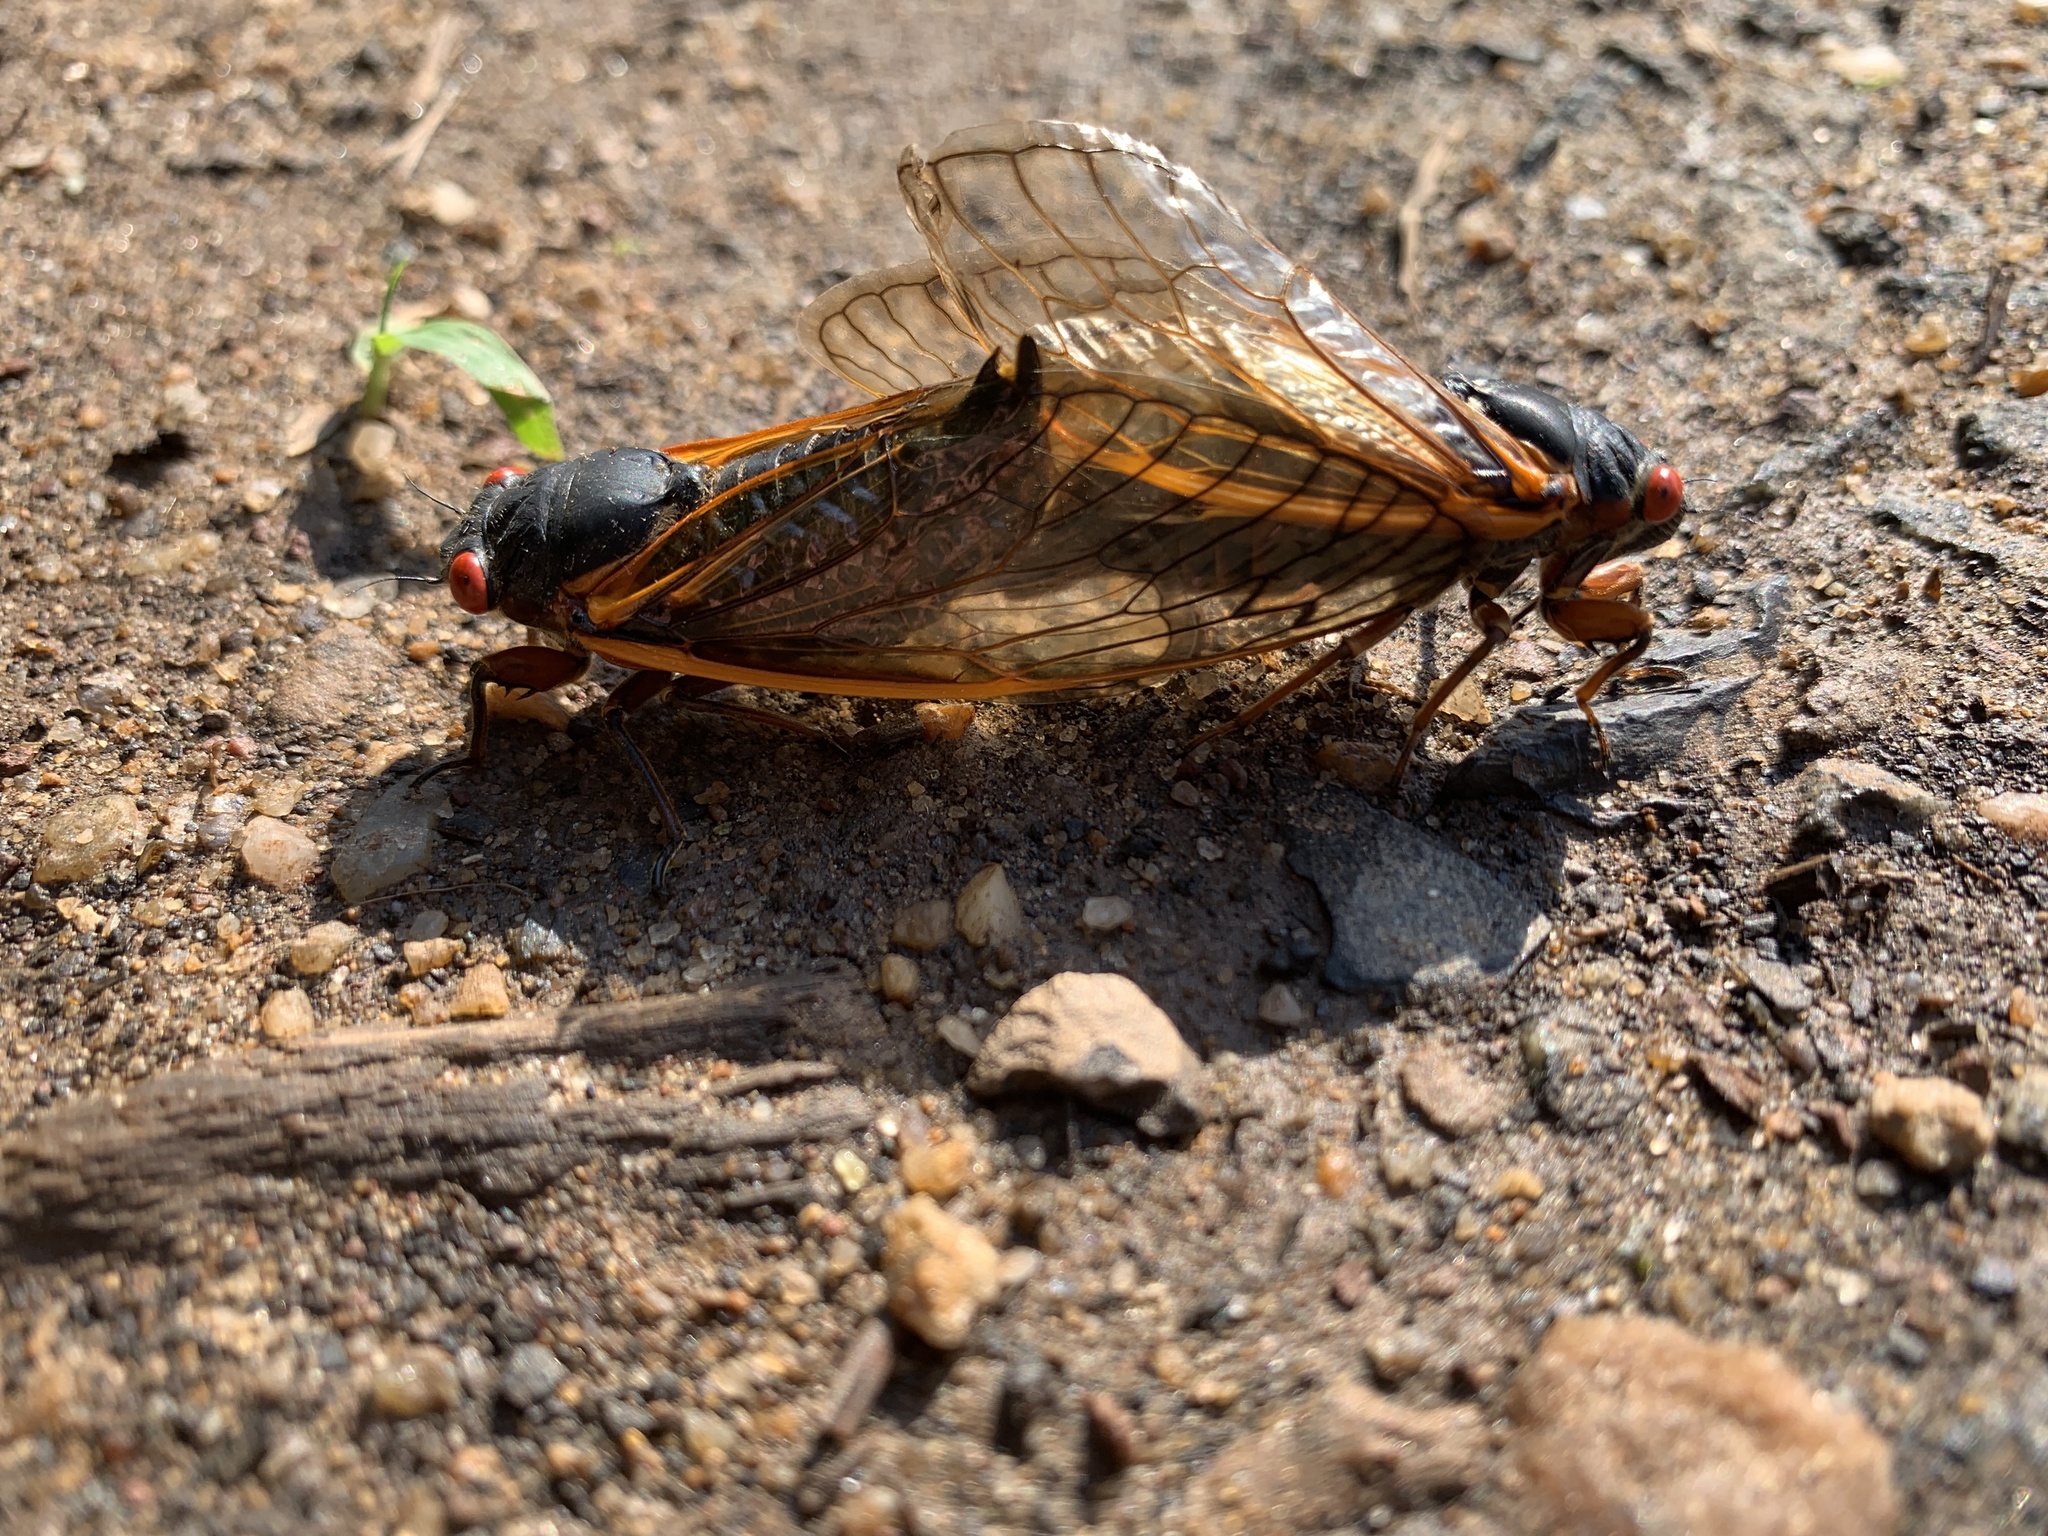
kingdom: Animalia
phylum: Arthropoda
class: Insecta
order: Hemiptera
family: Cicadidae
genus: Magicicada
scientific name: Magicicada septendecim
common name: Periodical cicada
